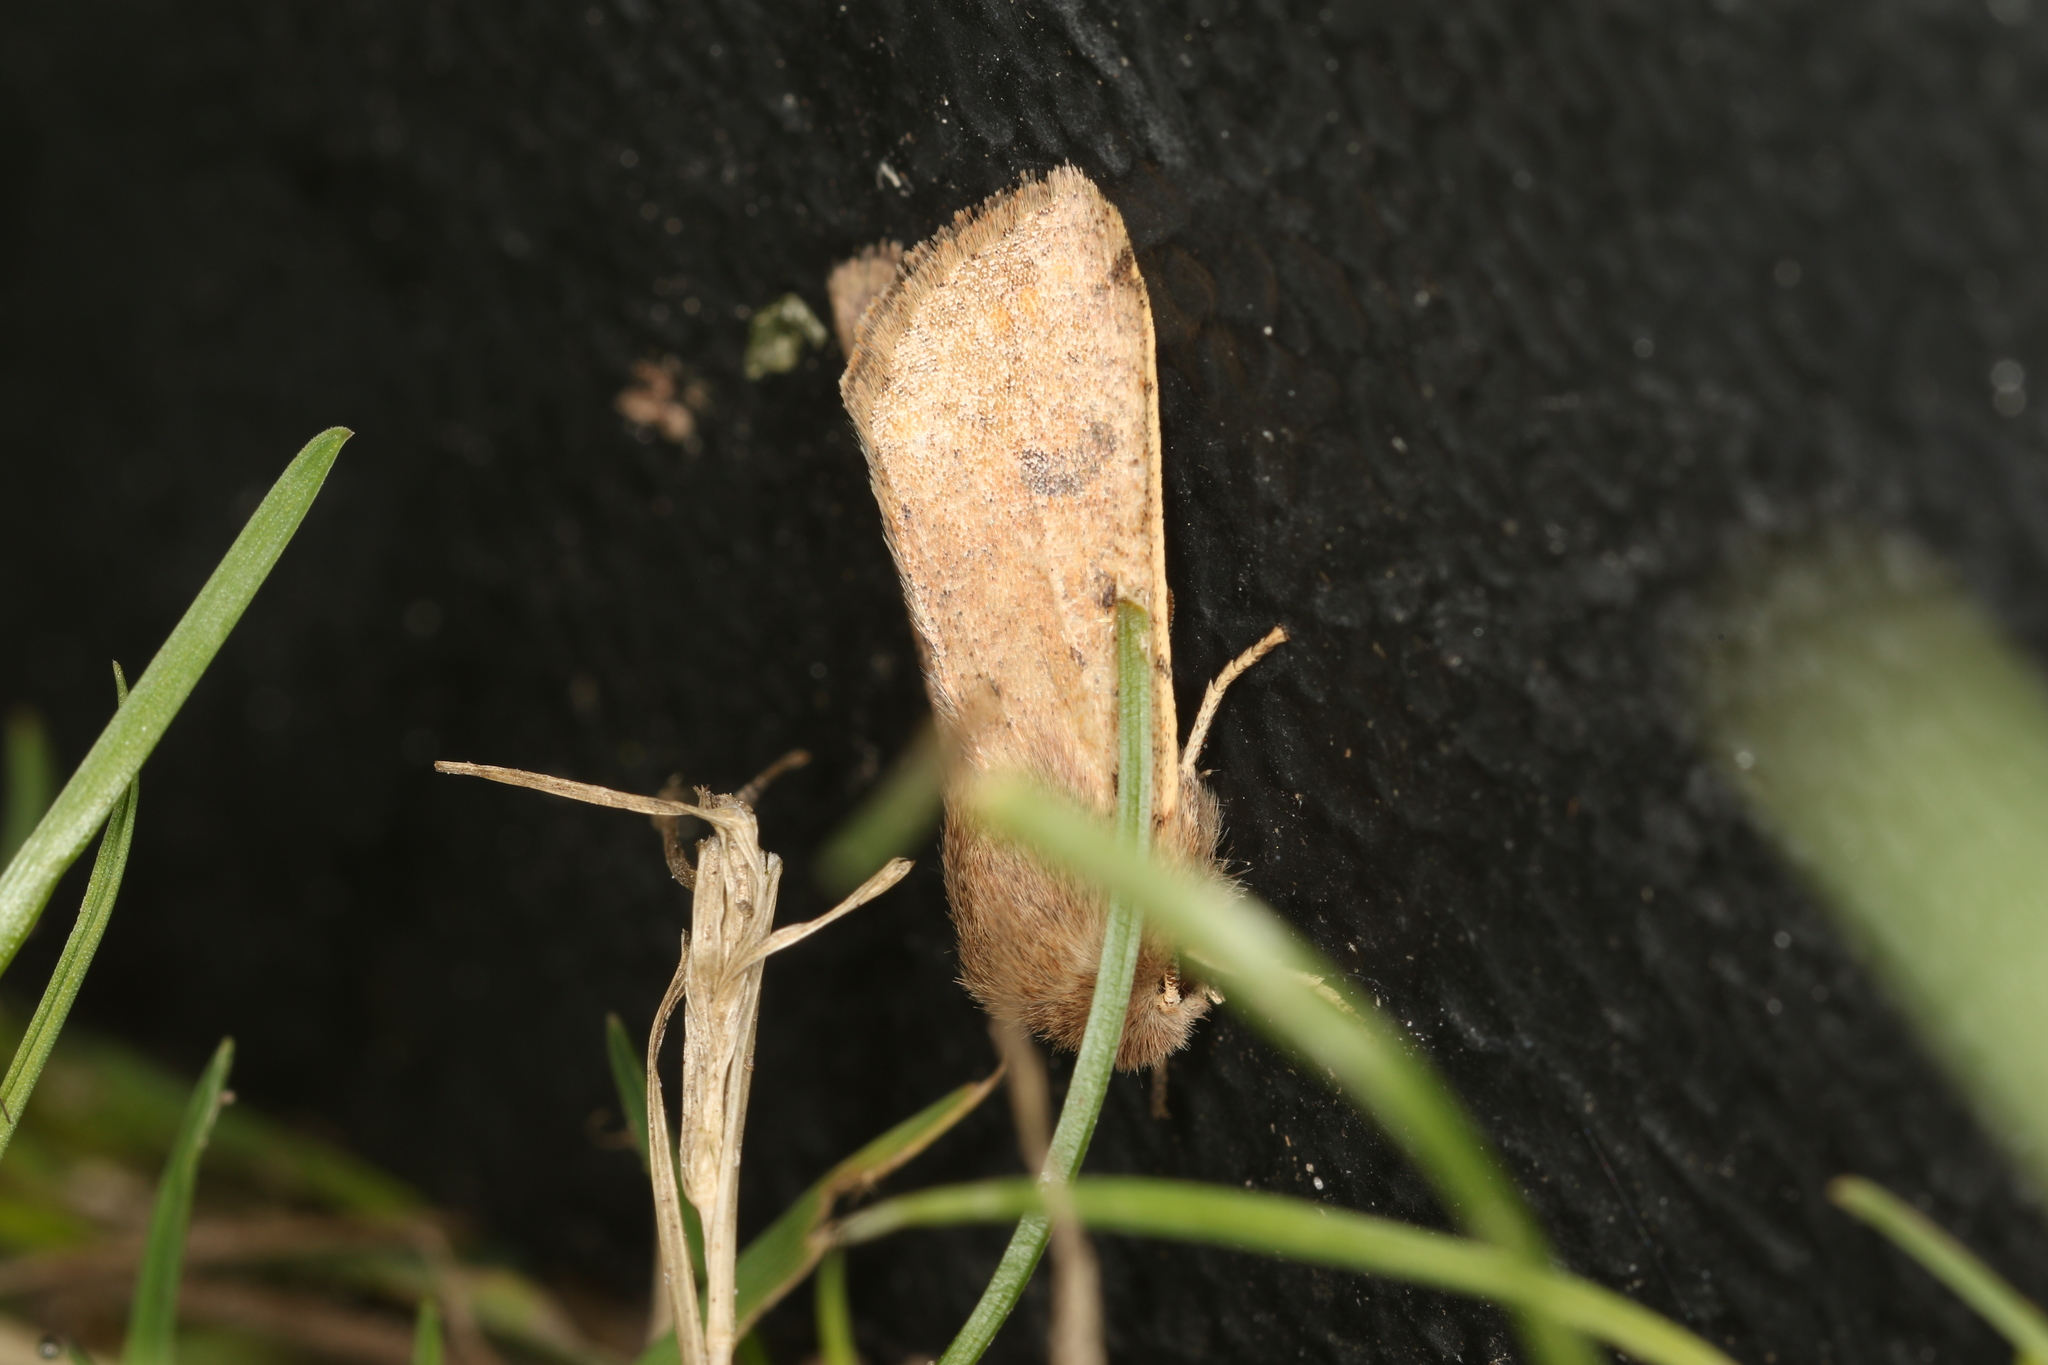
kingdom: Animalia
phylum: Arthropoda
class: Insecta
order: Lepidoptera
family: Noctuidae
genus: Orthosia
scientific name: Orthosia cruda
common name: Small quaker
